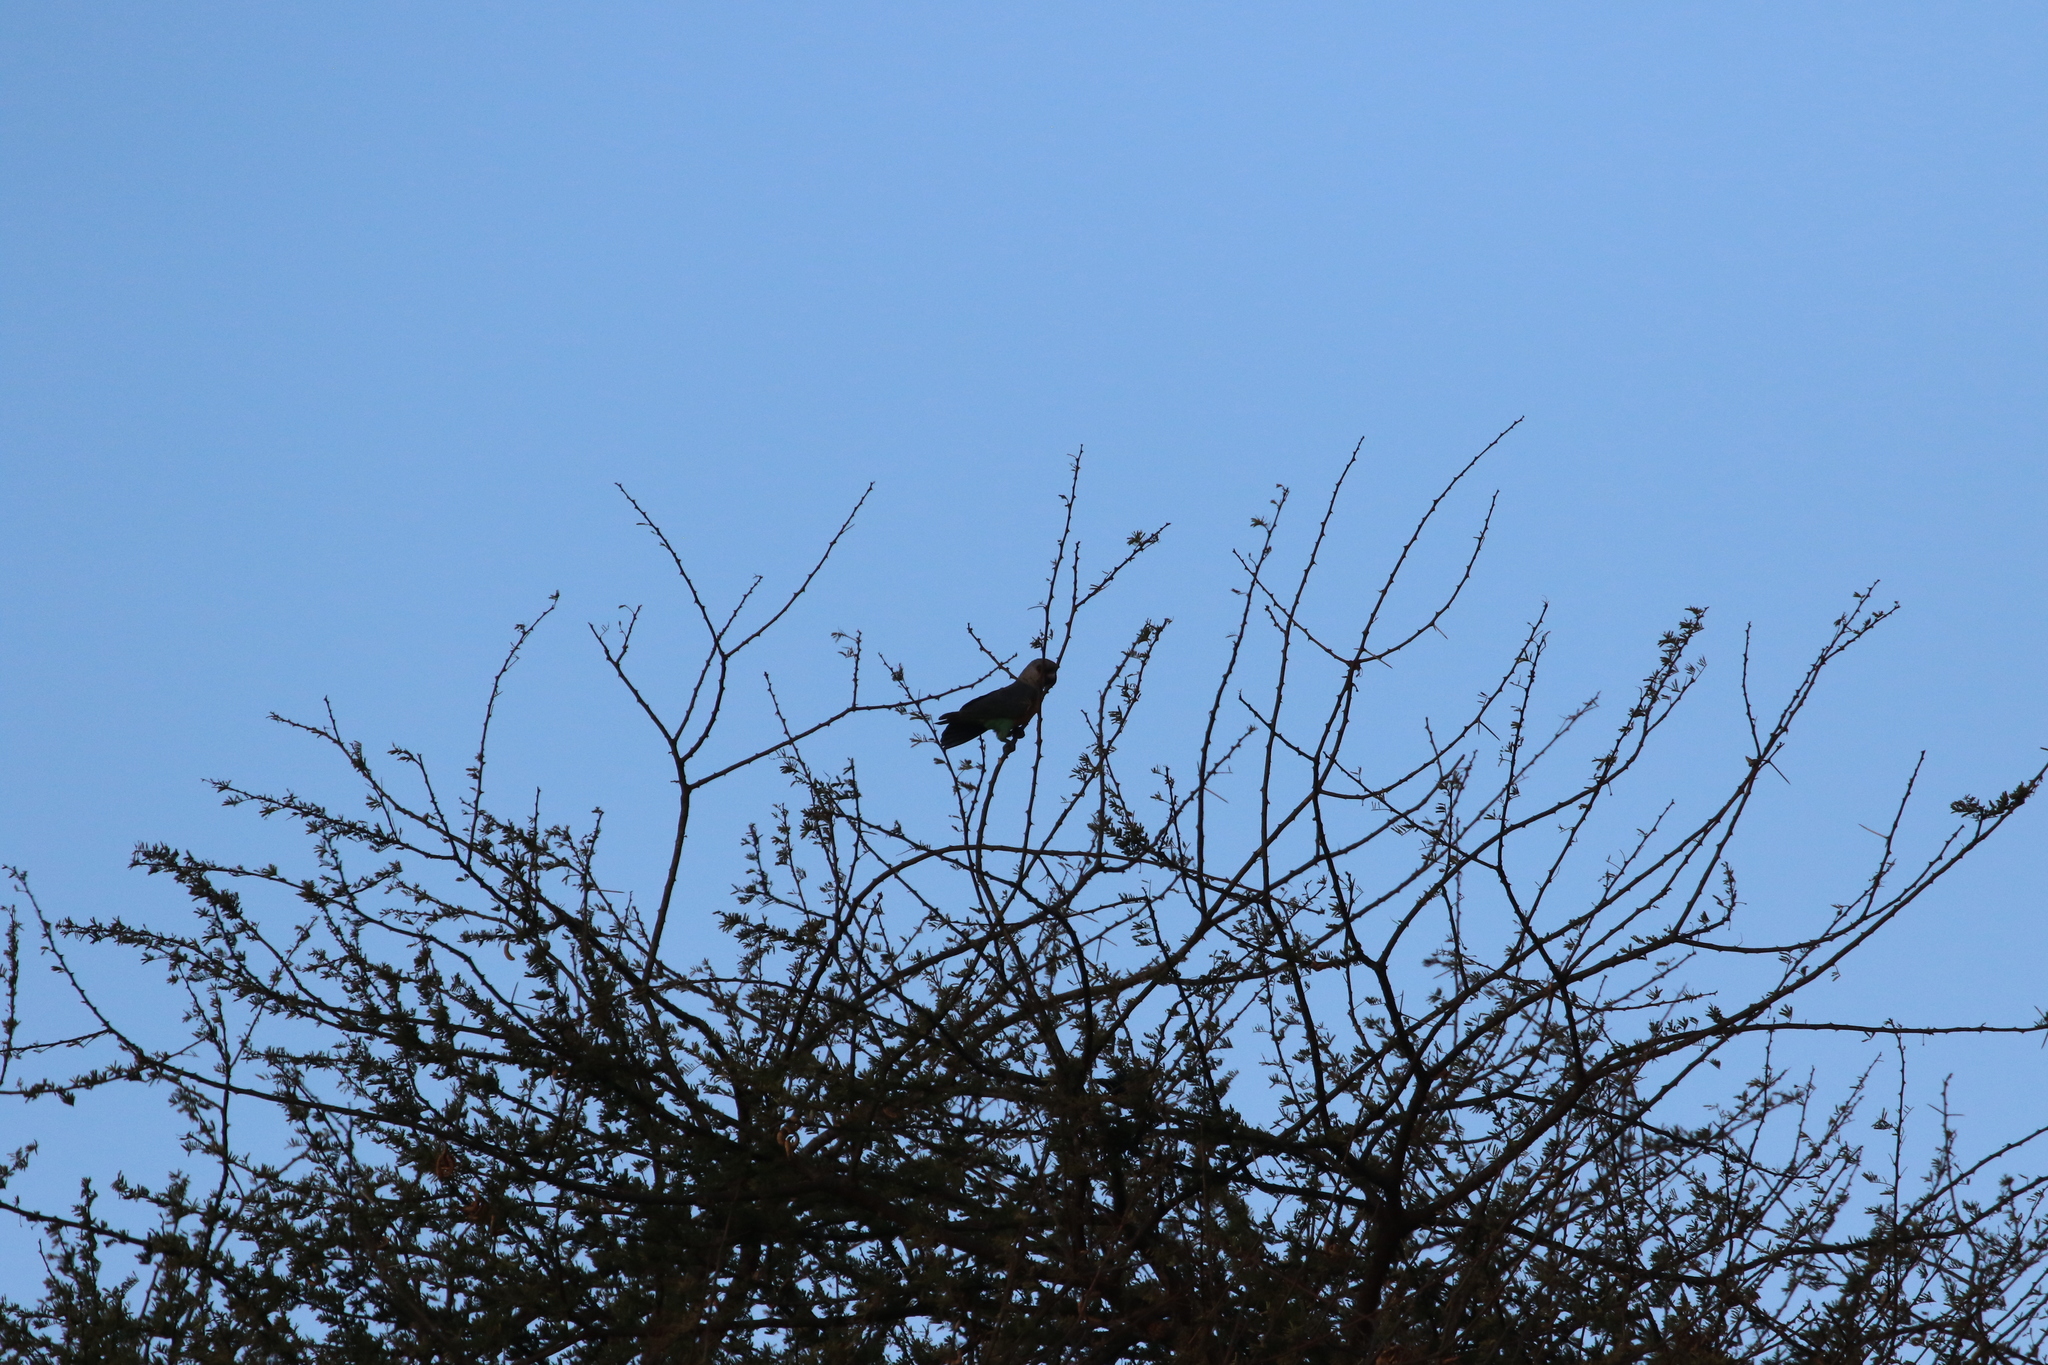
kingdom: Animalia
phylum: Chordata
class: Aves
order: Psittaciformes
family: Psittacidae
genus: Poicephalus
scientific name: Poicephalus rufiventris
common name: Red-bellied parrot
